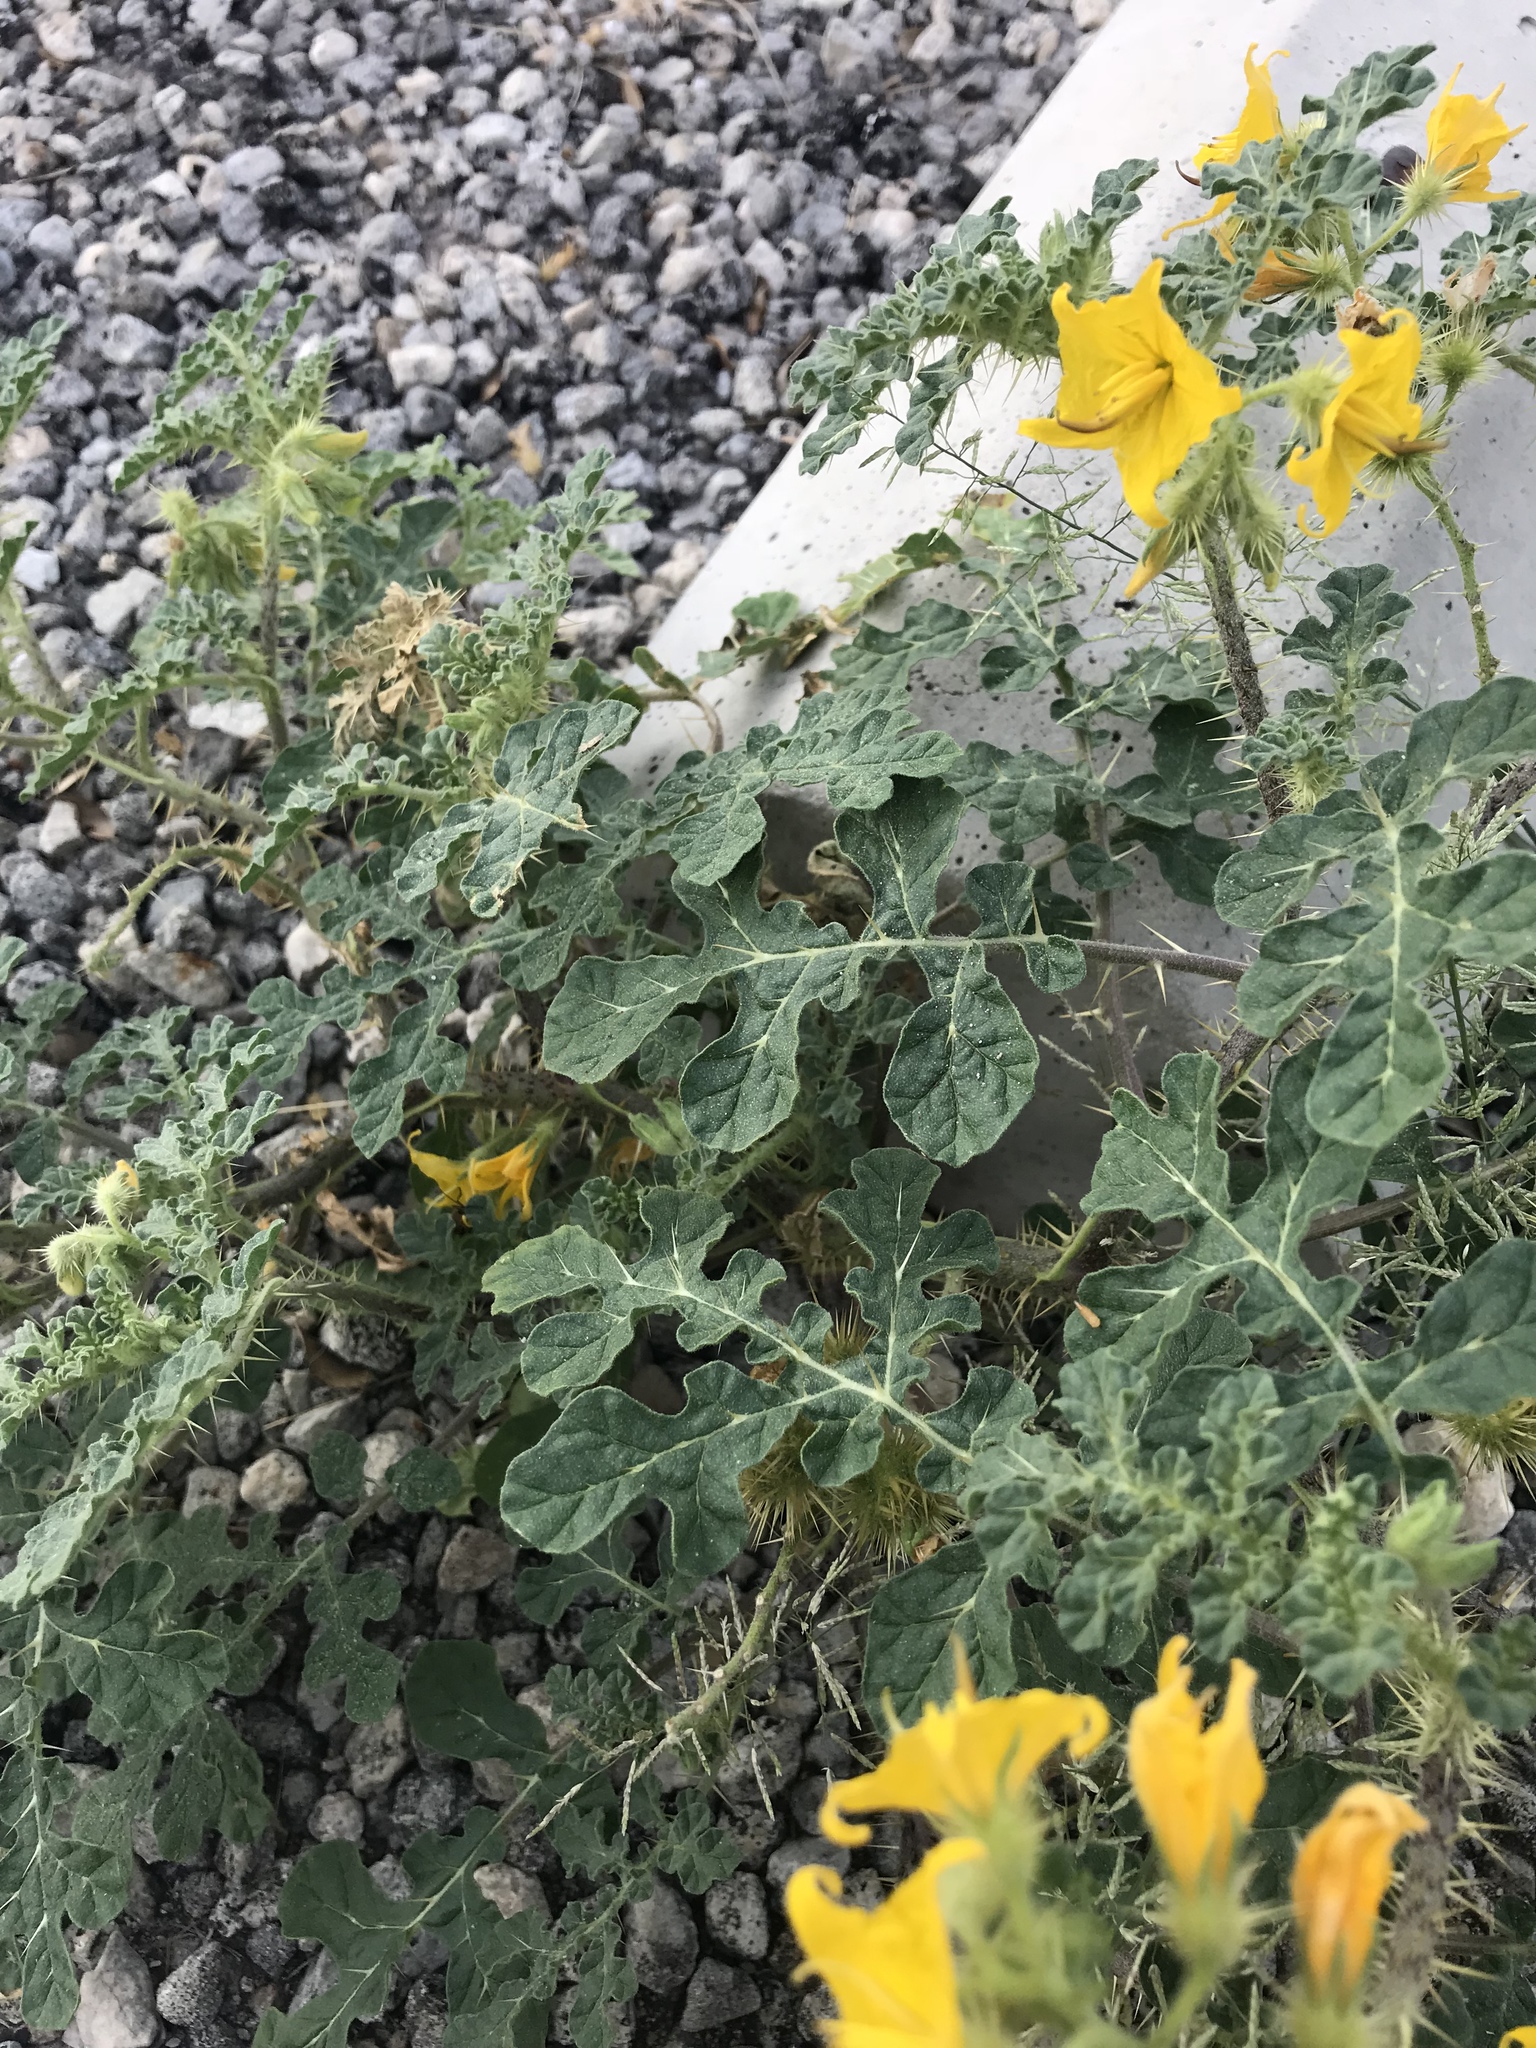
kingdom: Plantae
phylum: Tracheophyta
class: Magnoliopsida
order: Solanales
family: Solanaceae
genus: Solanum
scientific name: Solanum angustifolium
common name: Buffalobur nightshade
